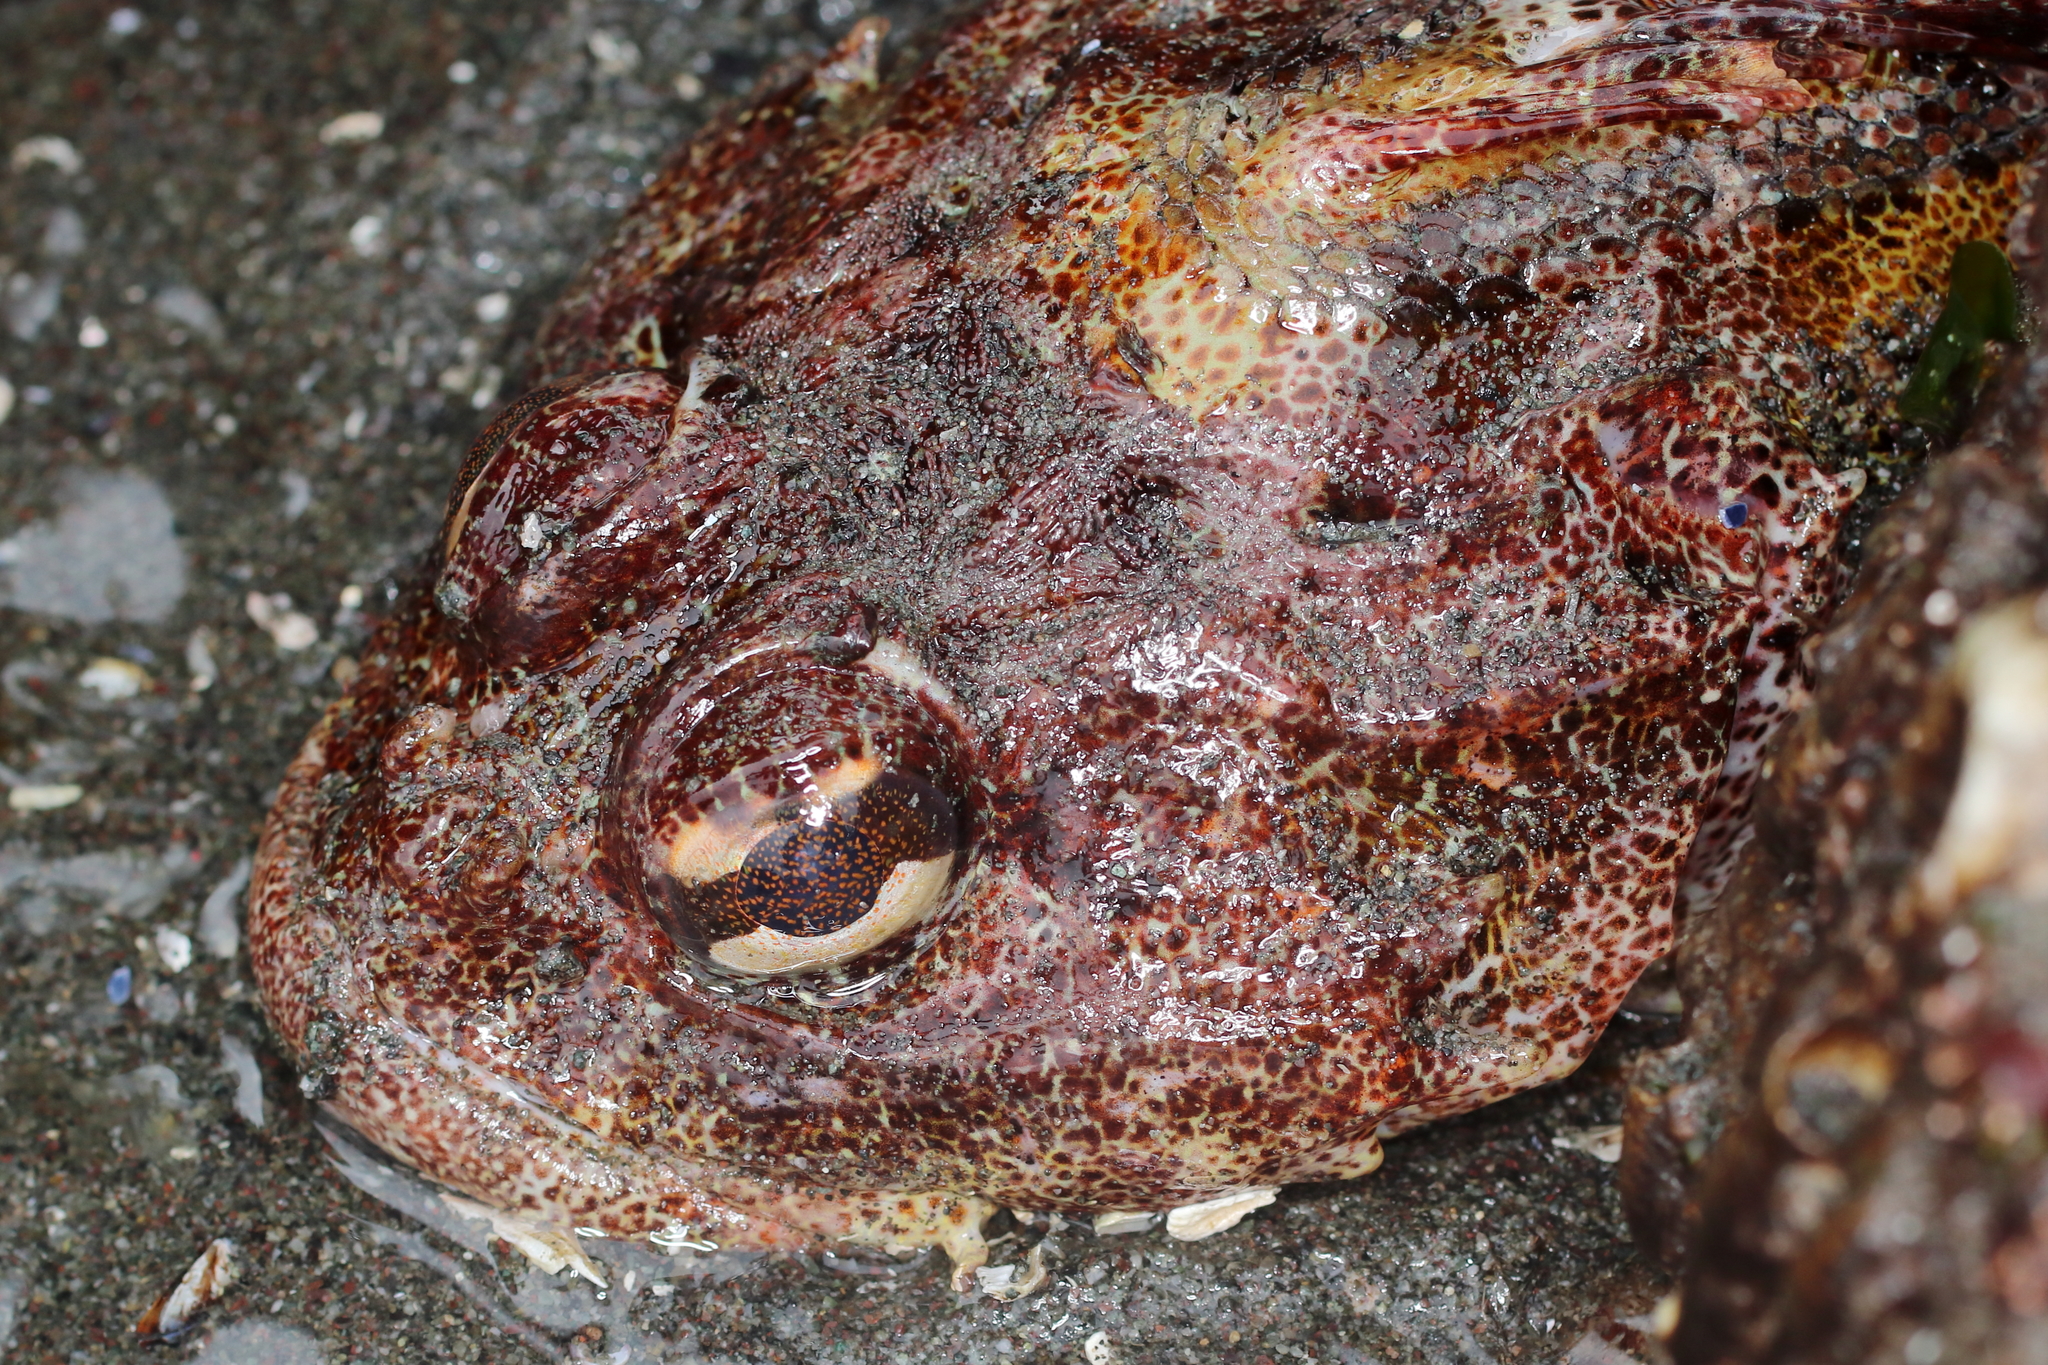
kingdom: Animalia
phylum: Chordata
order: Scorpaeniformes
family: Cottidae
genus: Hemilepidotus
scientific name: Hemilepidotus hemilepidotus
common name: Red irish lord
